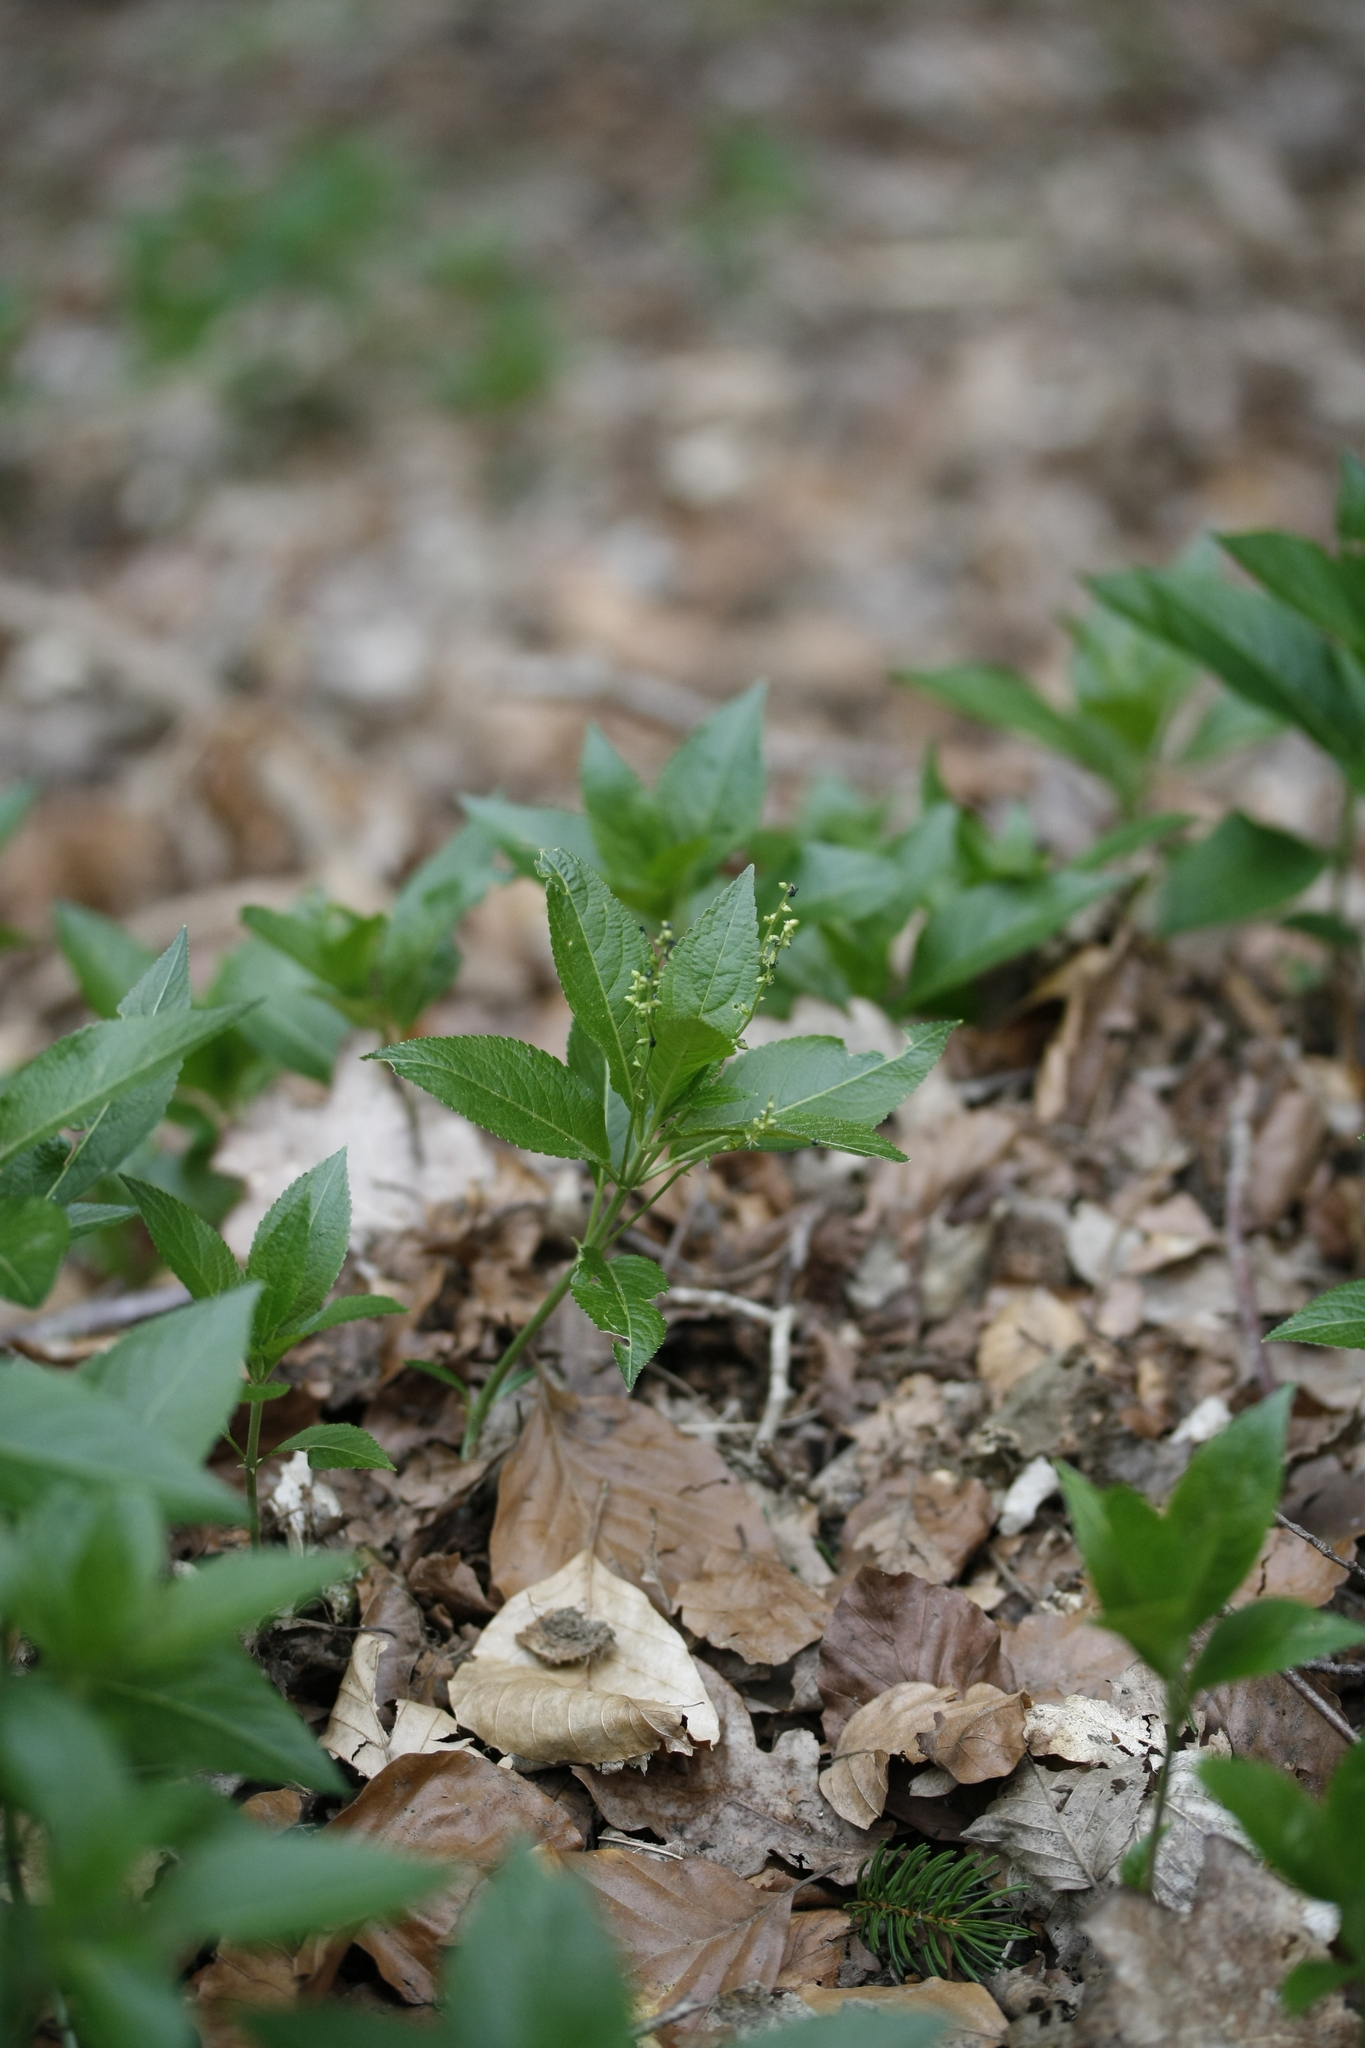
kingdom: Plantae
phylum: Tracheophyta
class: Magnoliopsida
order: Malpighiales
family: Euphorbiaceae
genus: Mercurialis
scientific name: Mercurialis perennis
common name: Dog mercury
